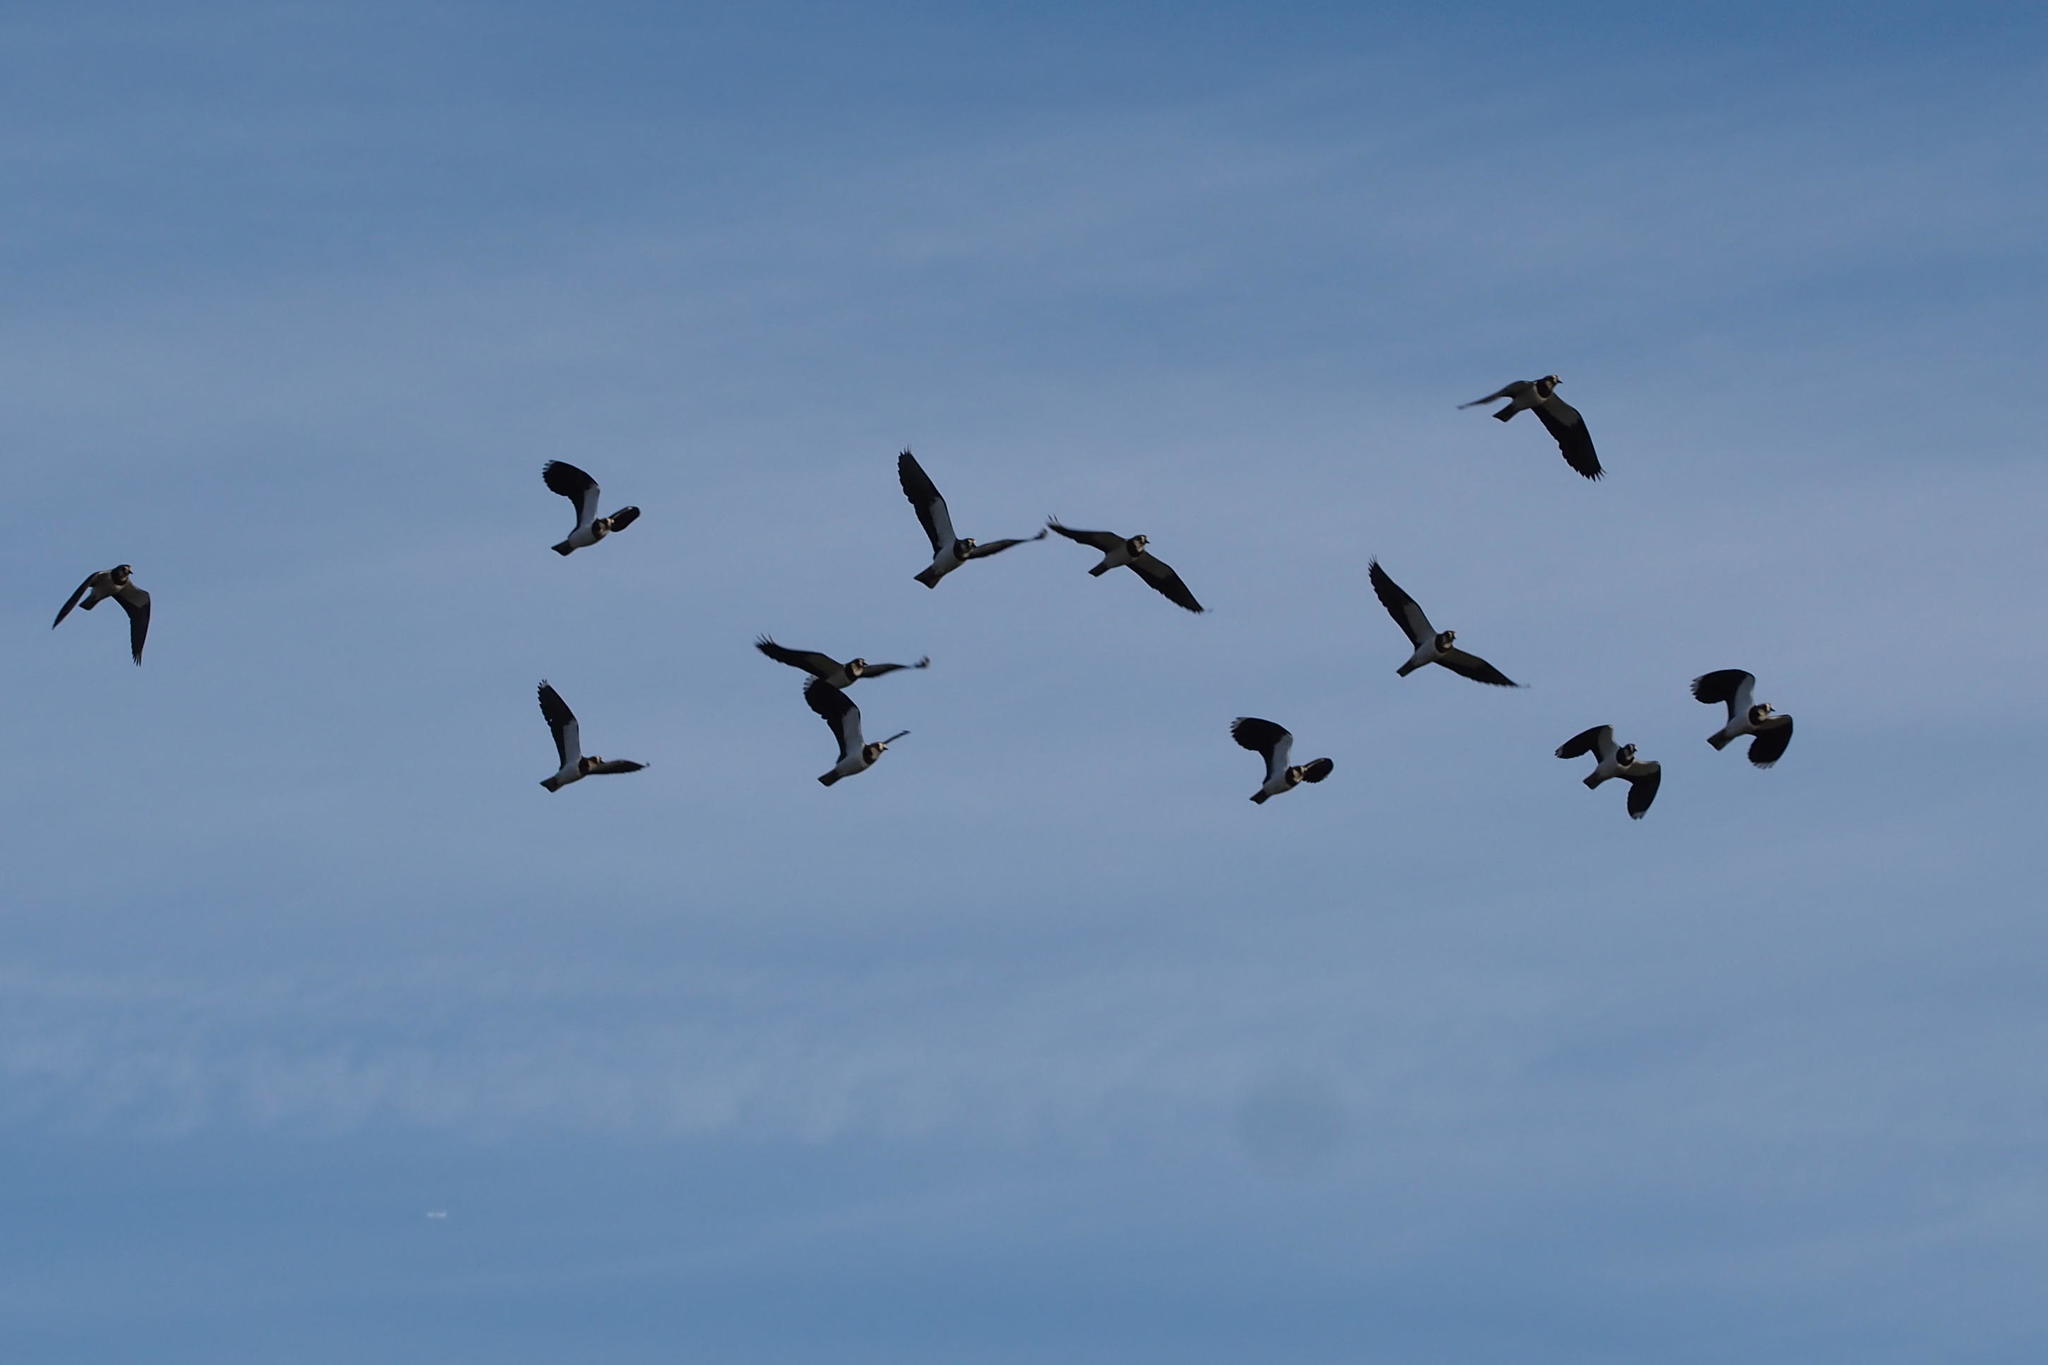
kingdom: Animalia
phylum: Chordata
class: Aves
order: Charadriiformes
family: Charadriidae
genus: Vanellus
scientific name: Vanellus vanellus
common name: Northern lapwing
